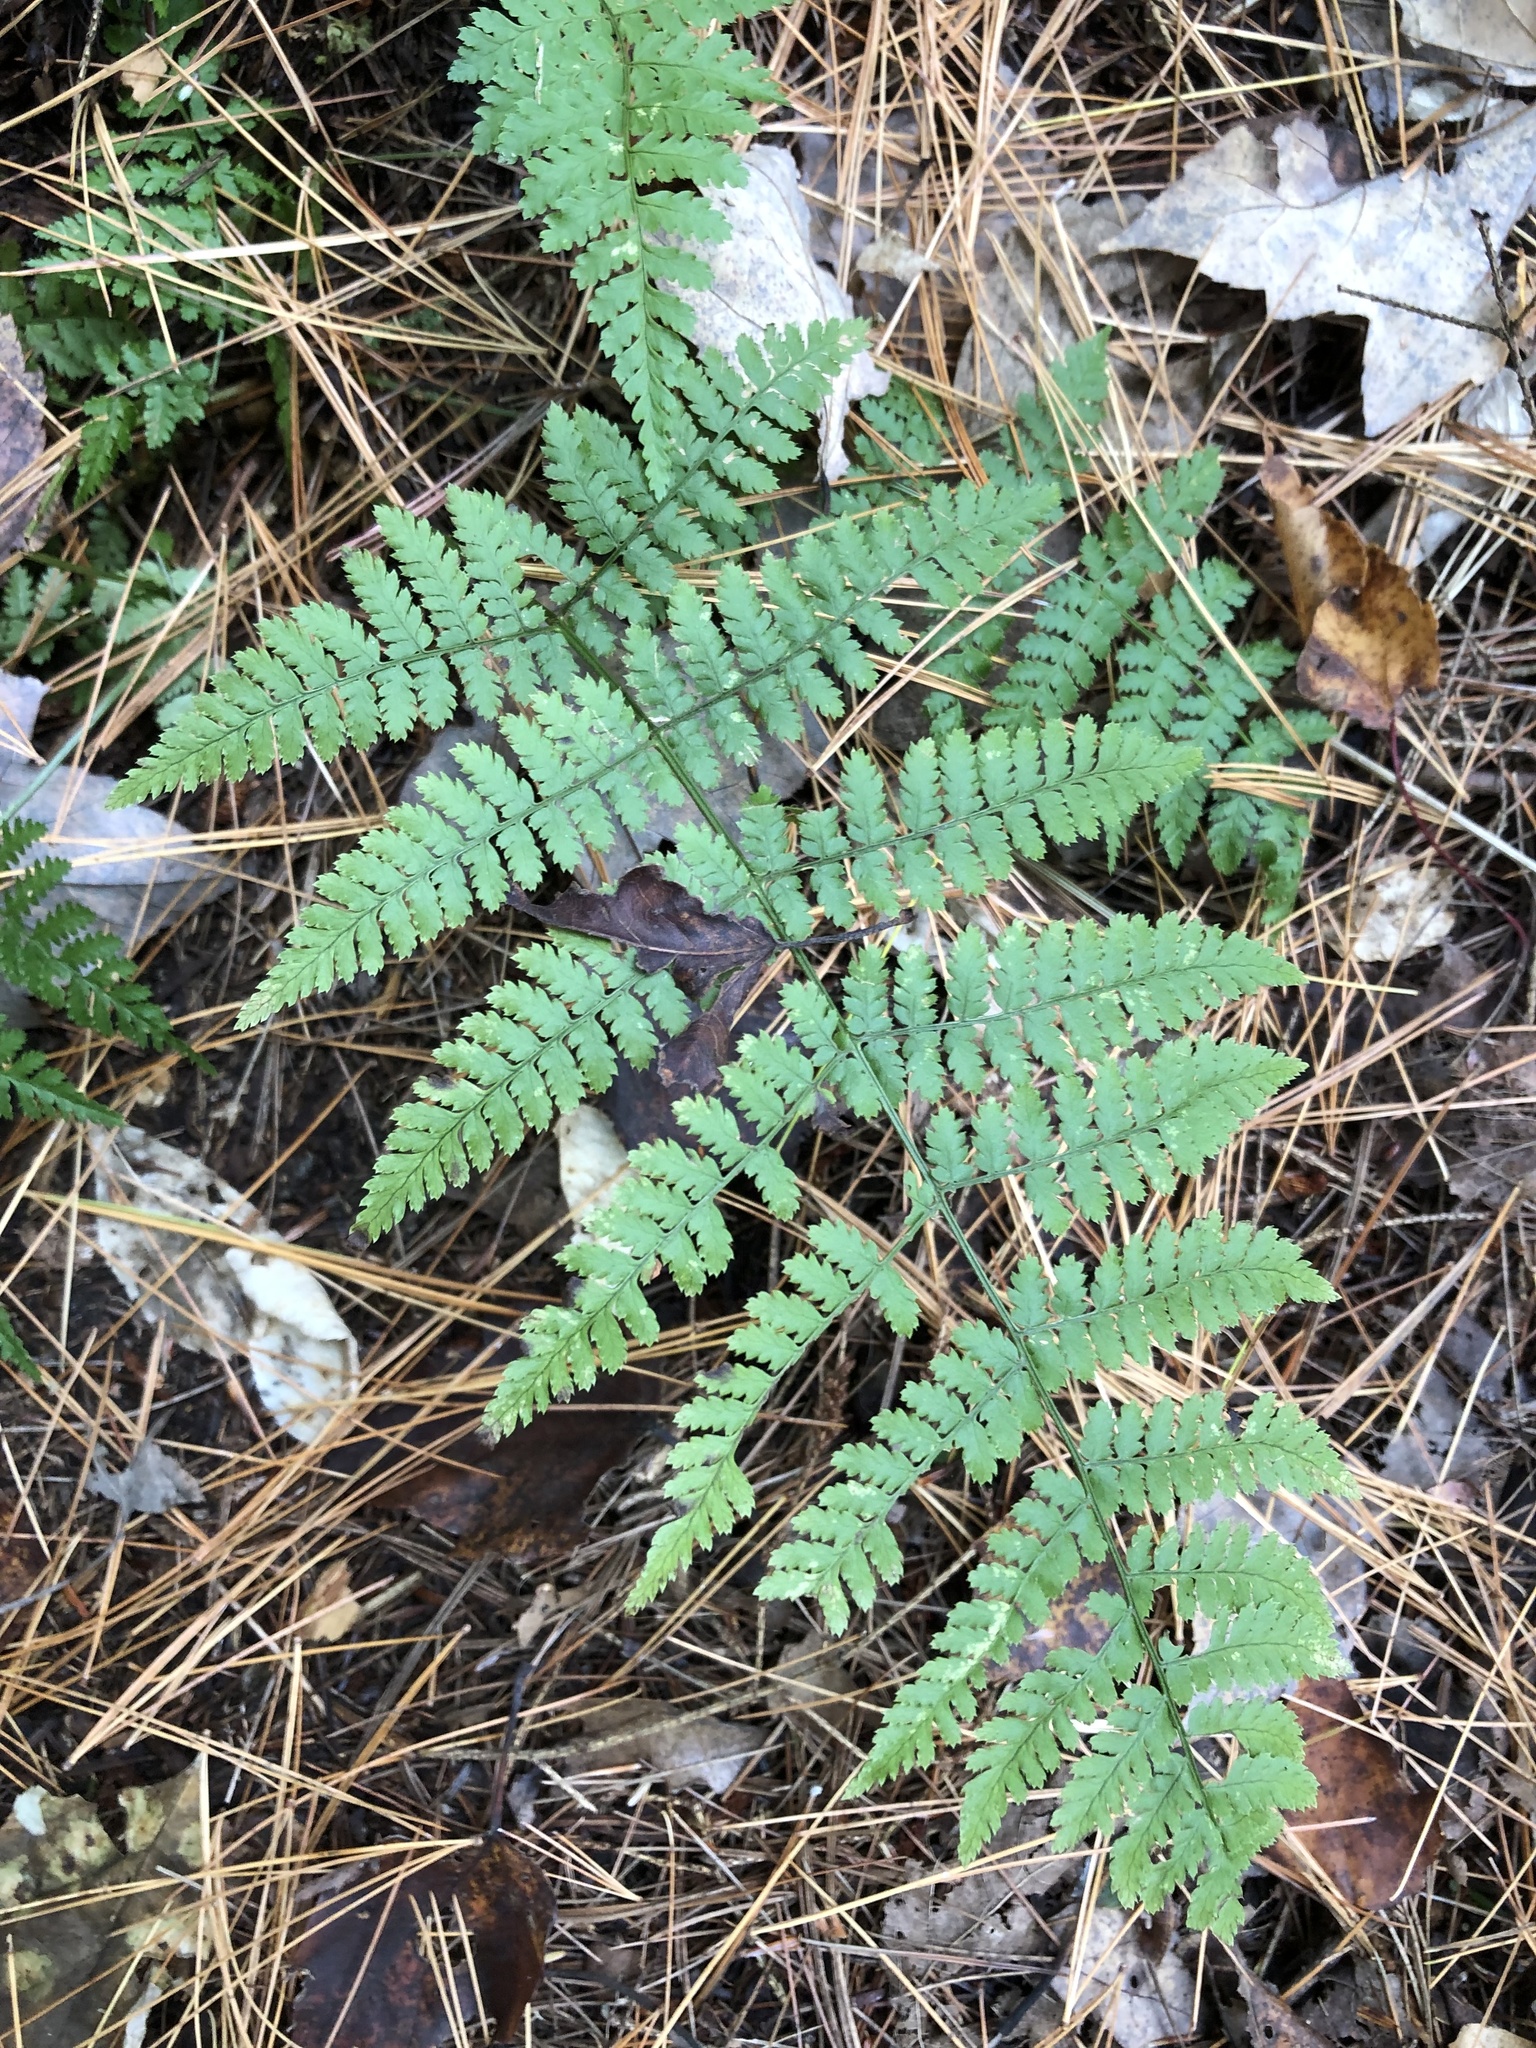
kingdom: Plantae
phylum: Tracheophyta
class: Polypodiopsida
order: Polypodiales
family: Dryopteridaceae
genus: Dryopteris
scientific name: Dryopteris intermedia
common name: Evergreen wood fern
